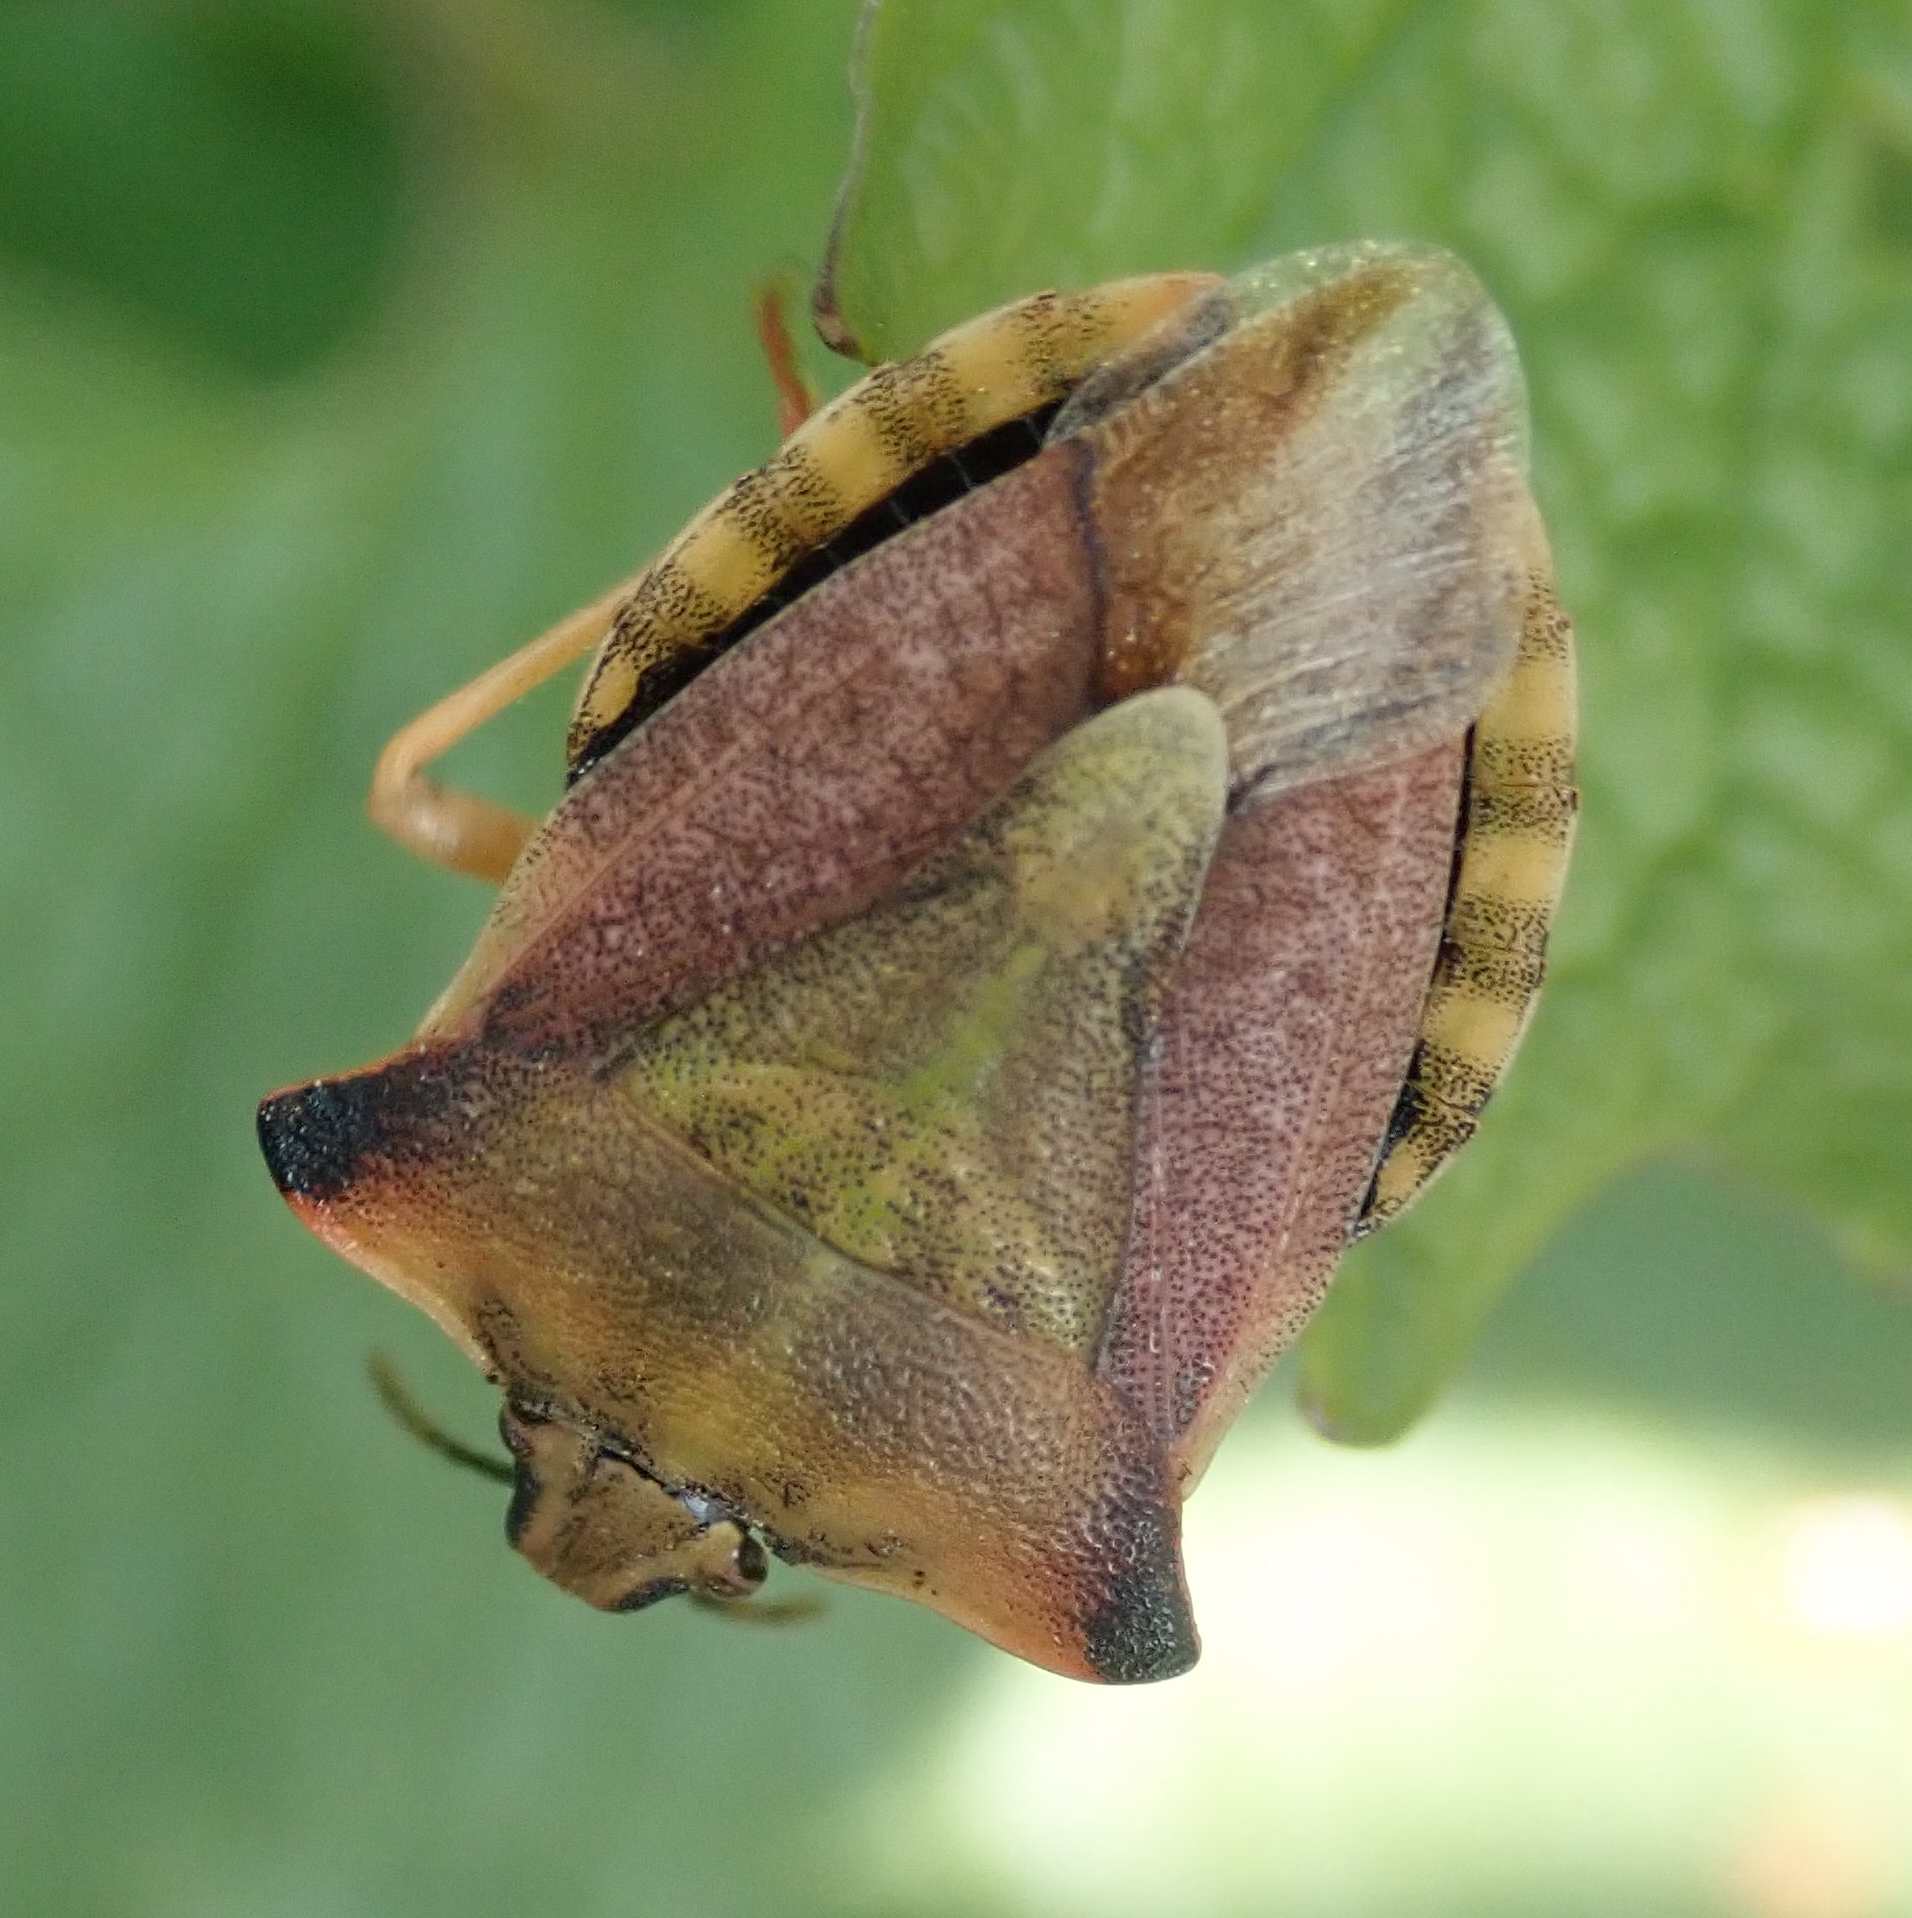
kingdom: Animalia
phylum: Arthropoda
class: Insecta
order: Hemiptera
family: Pentatomidae
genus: Carpocoris
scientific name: Carpocoris fuscispinus
